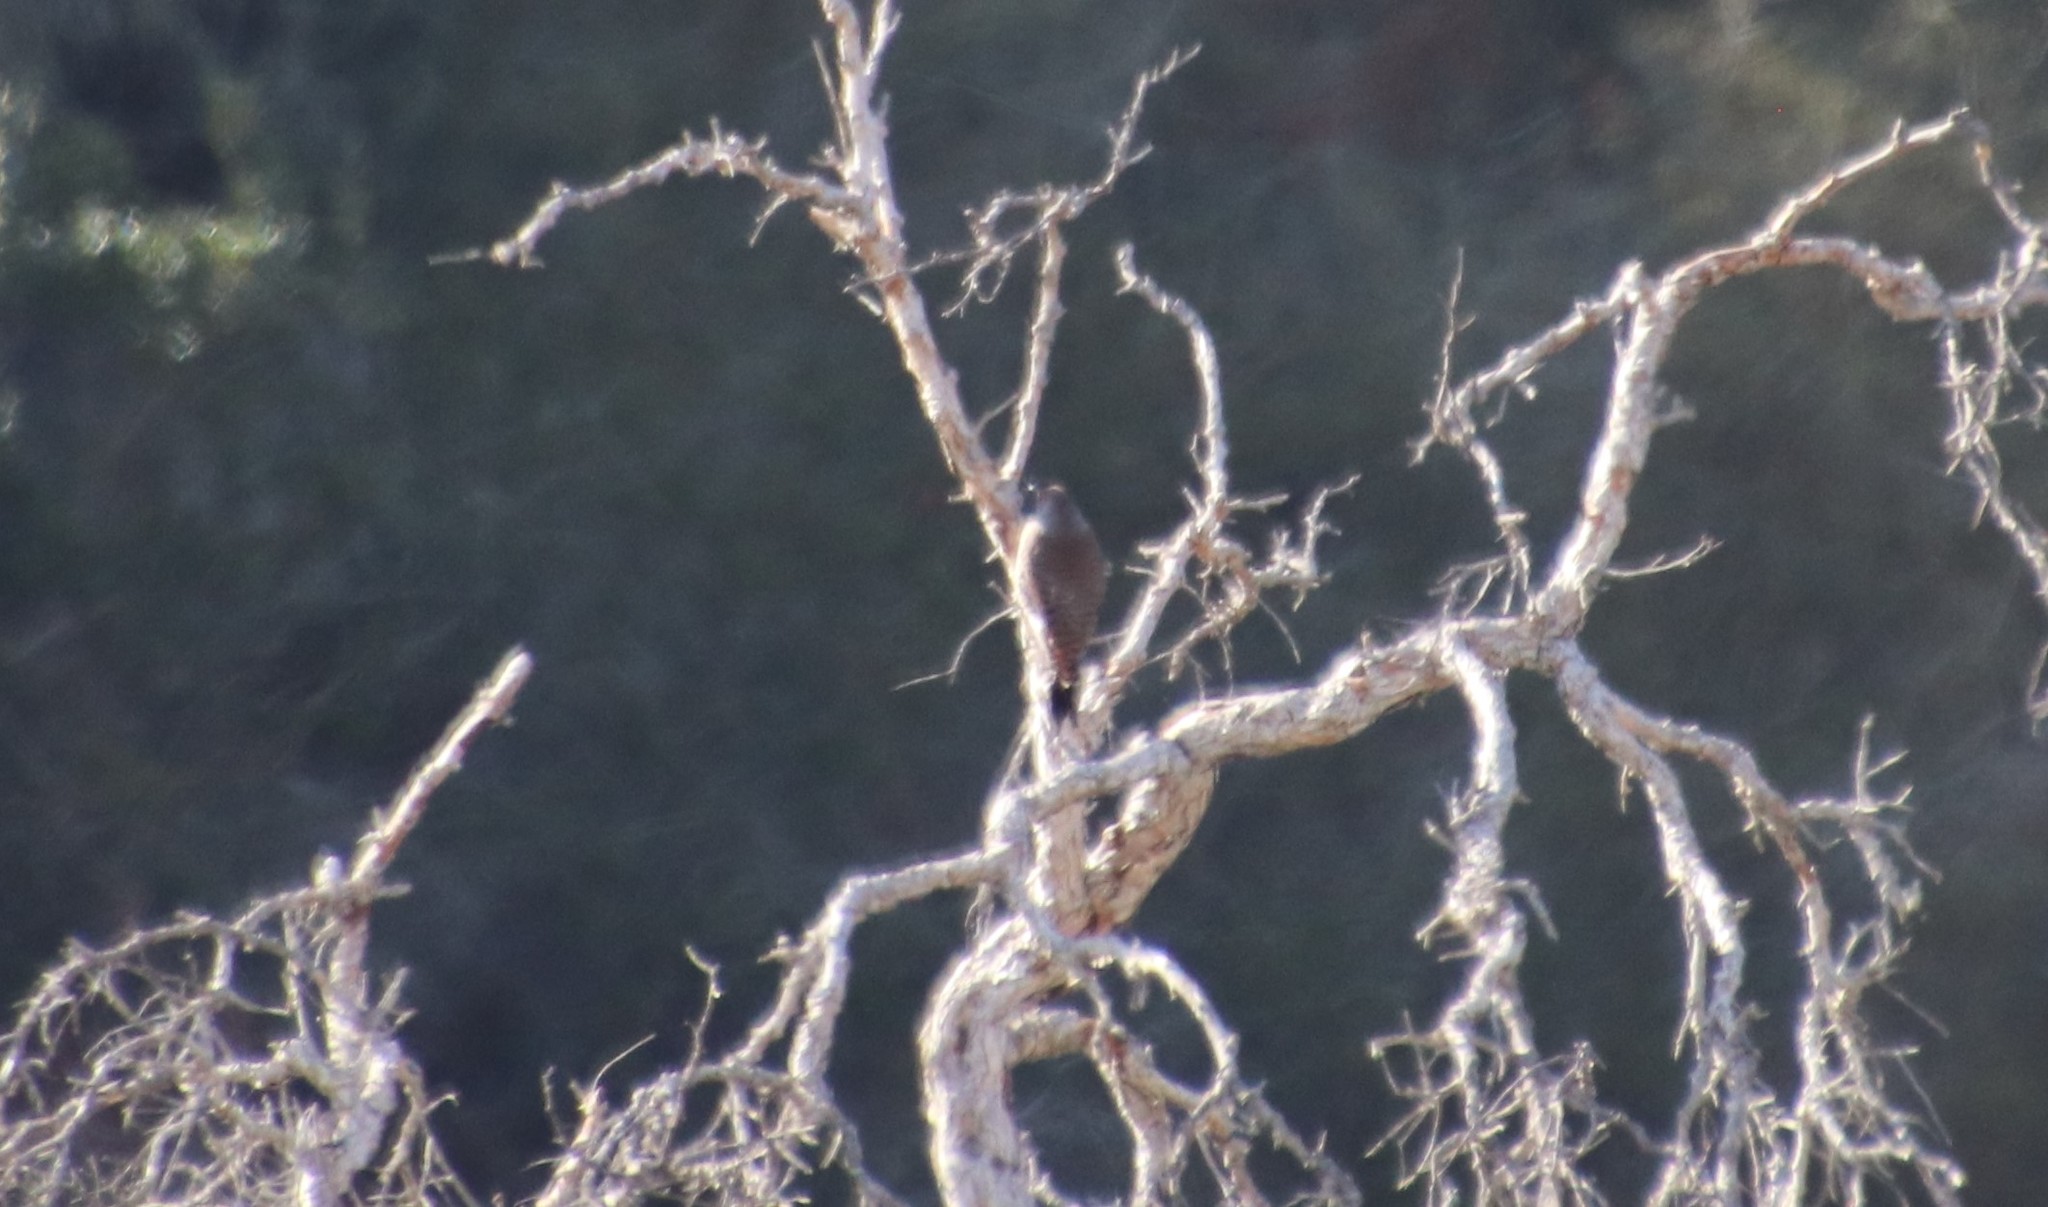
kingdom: Animalia
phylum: Chordata
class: Aves
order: Piciformes
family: Picidae
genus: Colaptes
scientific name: Colaptes auratus
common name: Northern flicker
